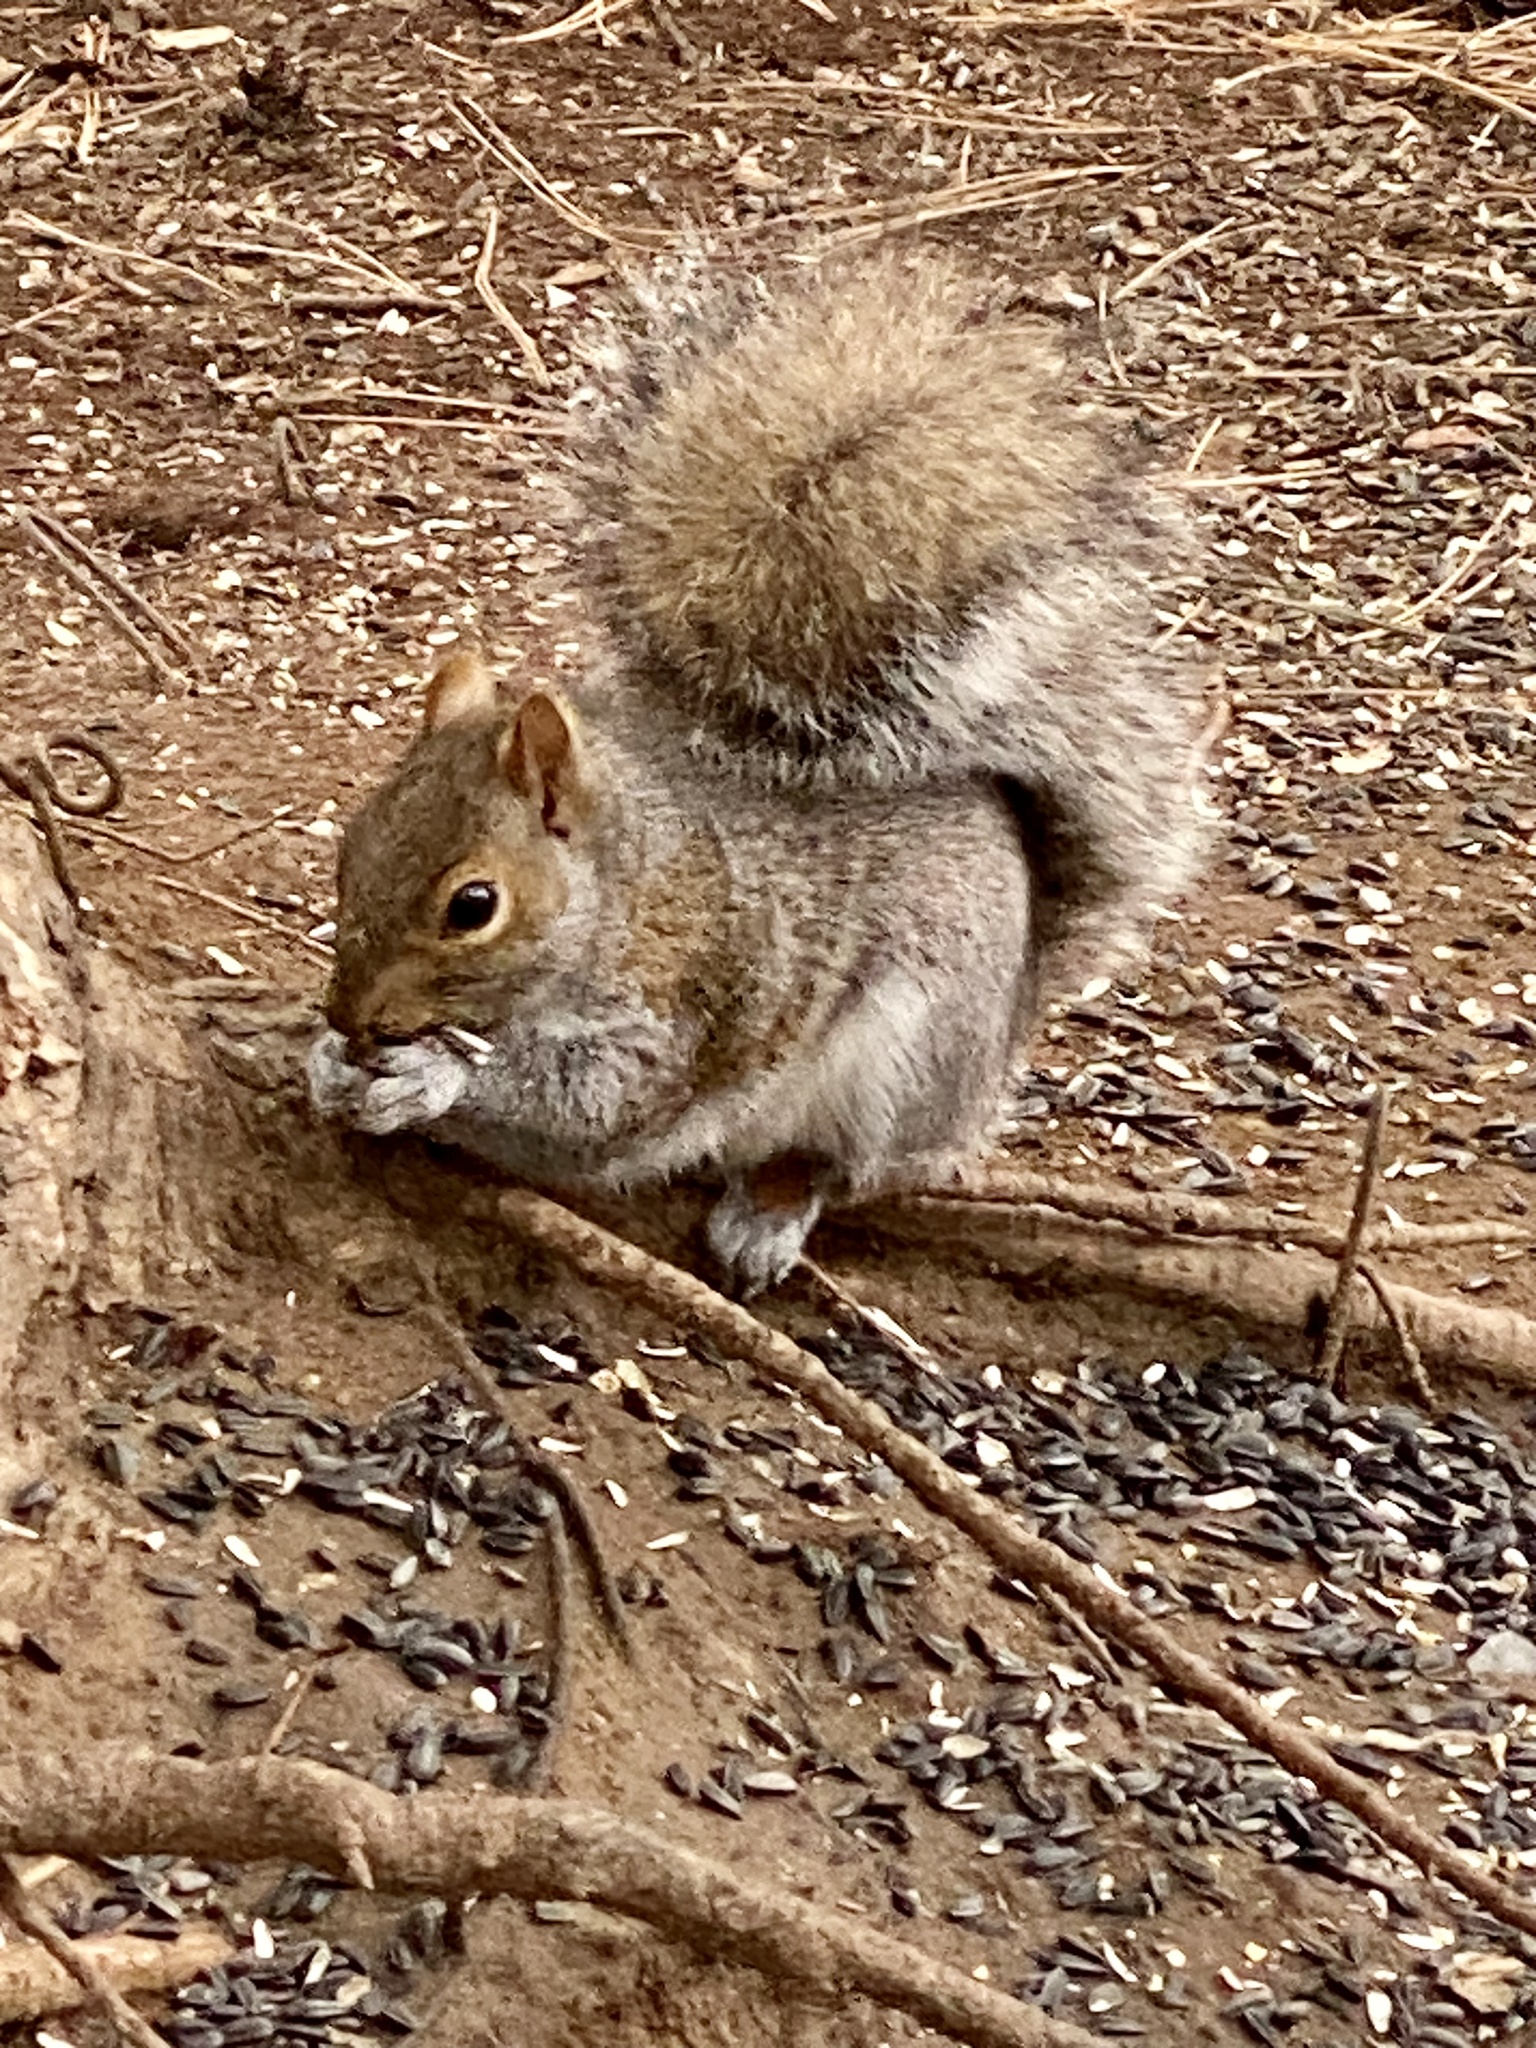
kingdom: Animalia
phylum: Chordata
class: Mammalia
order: Rodentia
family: Sciuridae
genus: Sciurus
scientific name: Sciurus carolinensis
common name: Eastern gray squirrel
